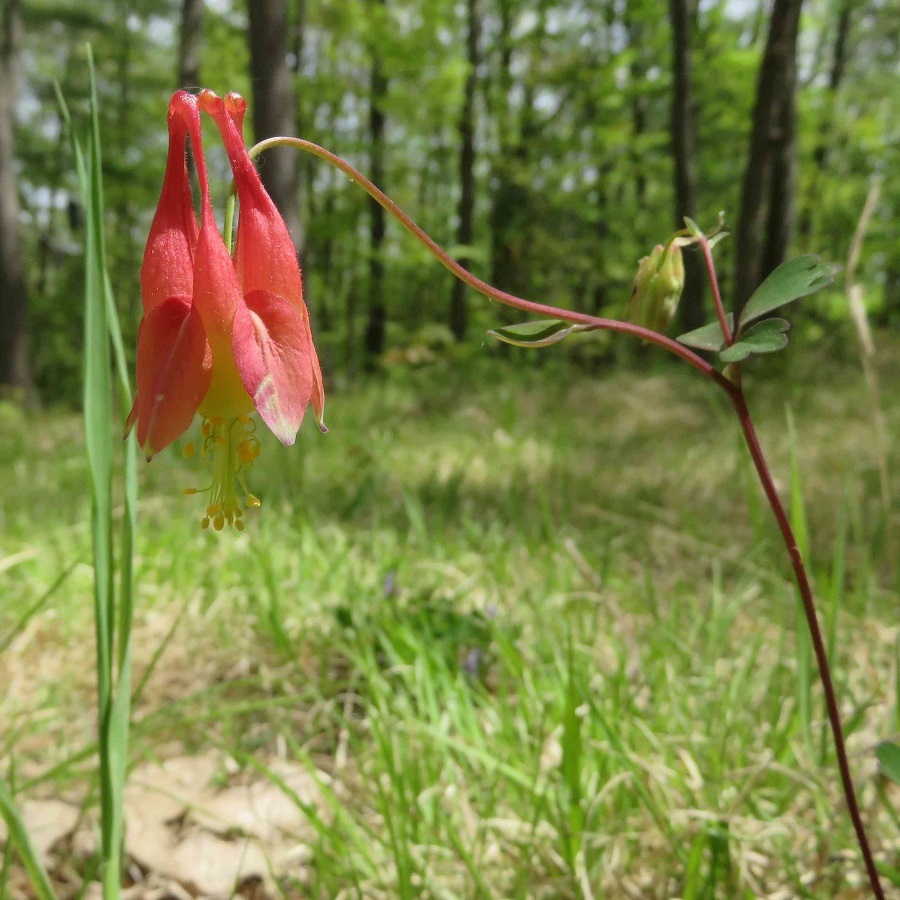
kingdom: Plantae
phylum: Tracheophyta
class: Magnoliopsida
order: Ranunculales
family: Ranunculaceae
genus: Aquilegia
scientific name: Aquilegia canadensis
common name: American columbine
